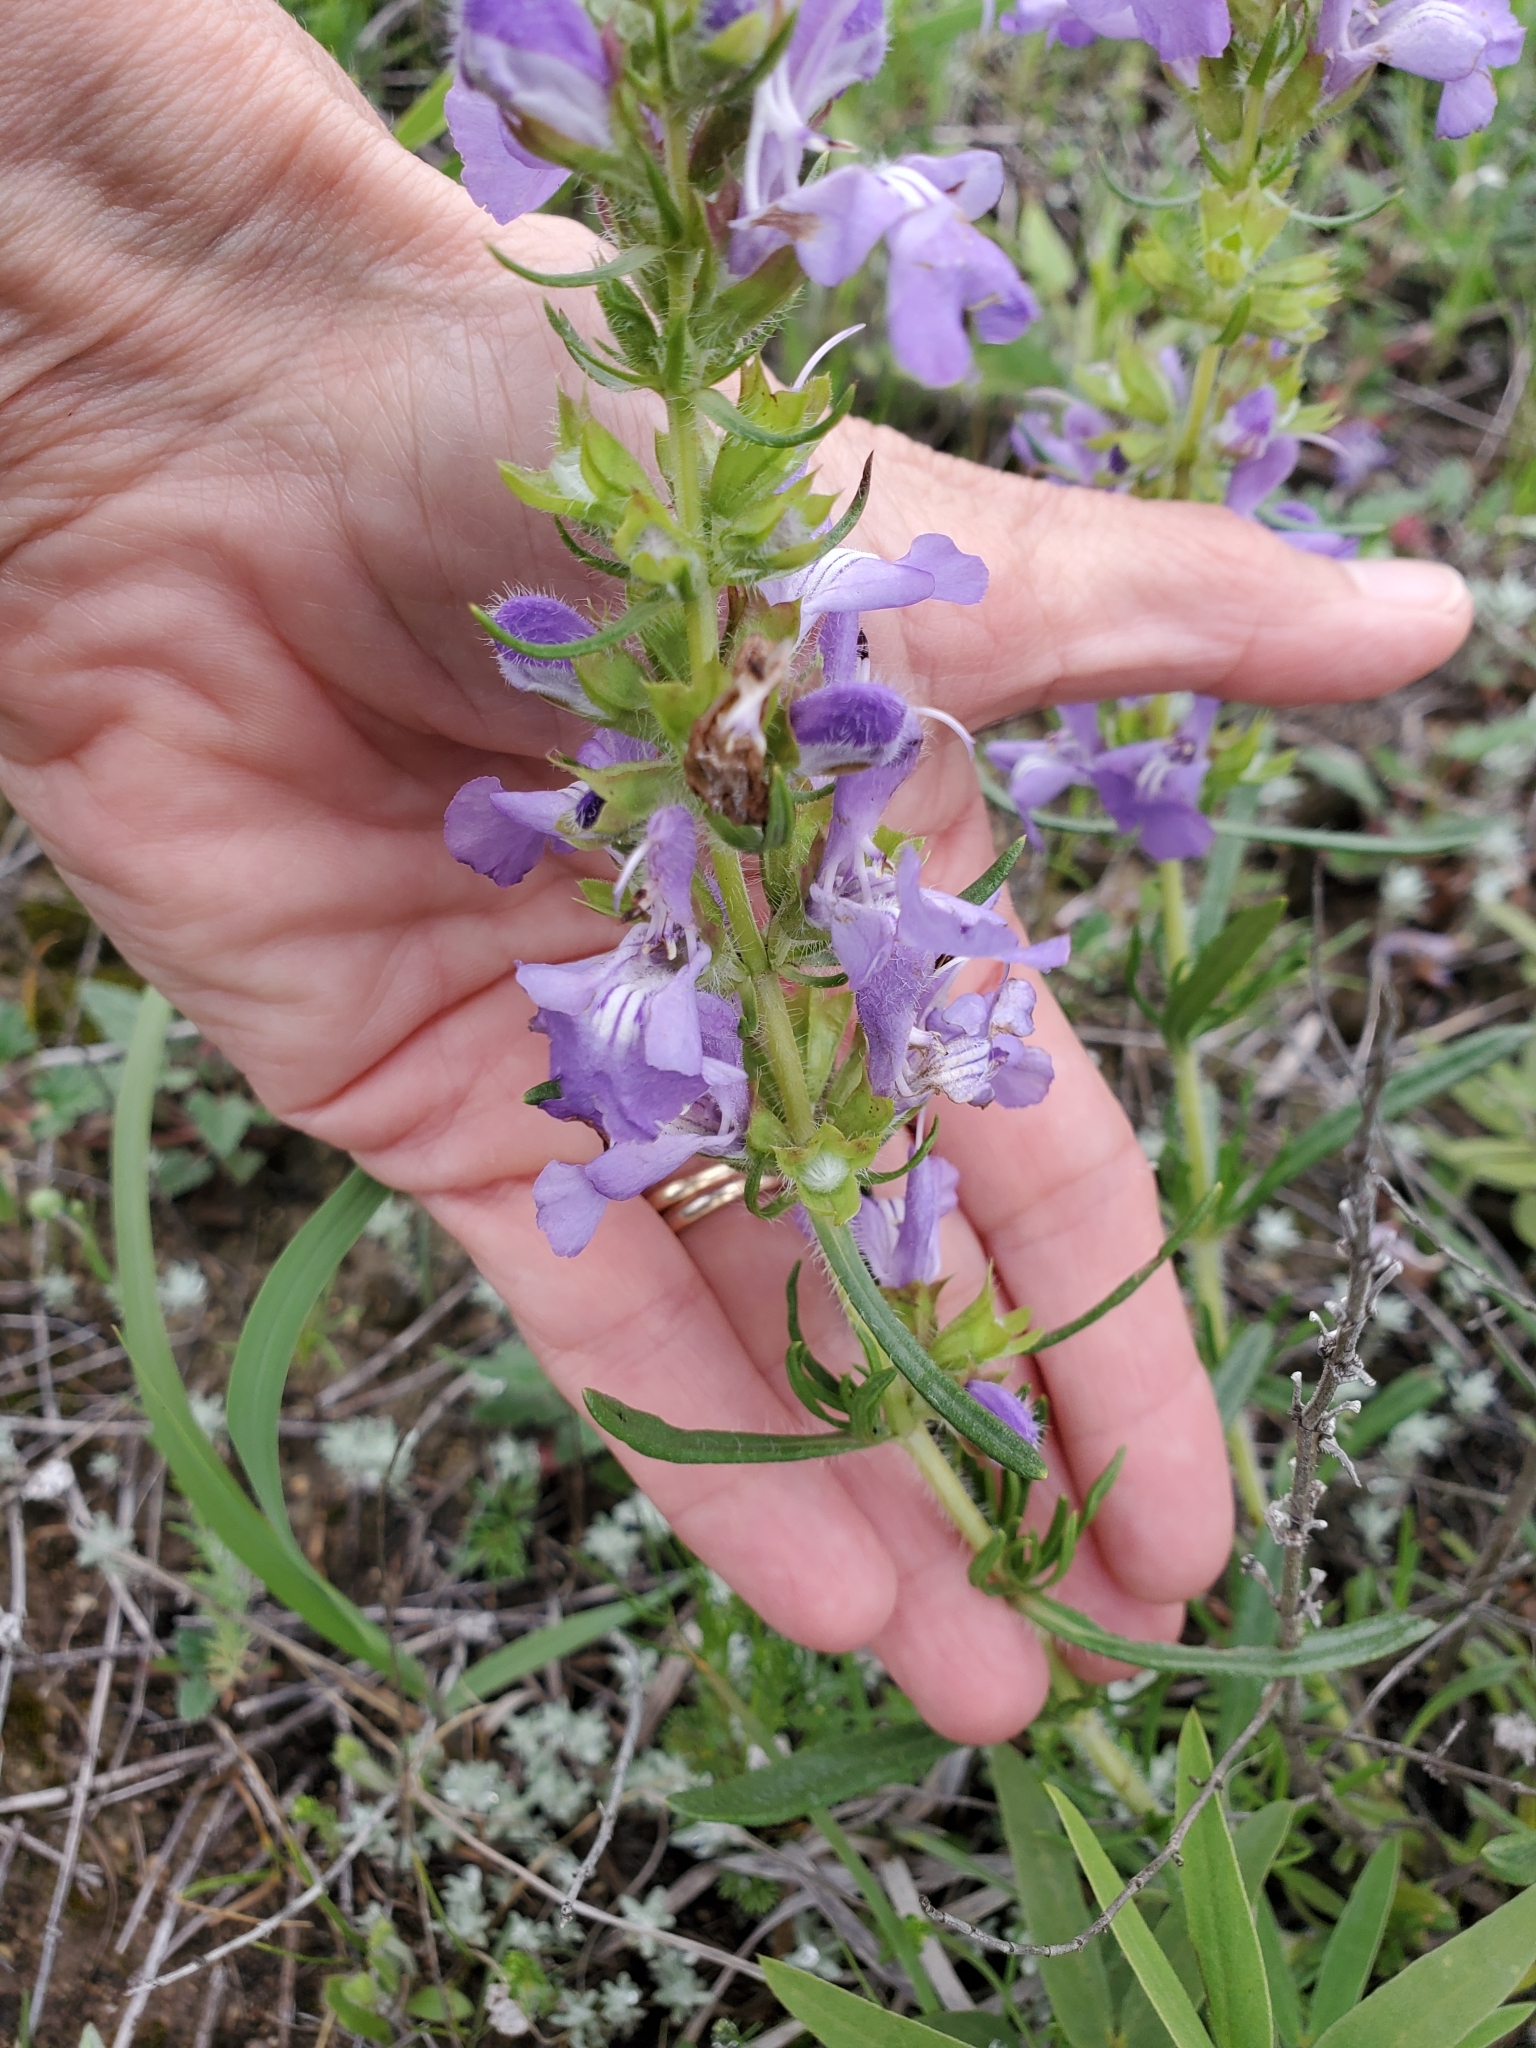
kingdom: Plantae
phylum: Tracheophyta
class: Magnoliopsida
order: Lamiales
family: Lamiaceae
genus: Salvia
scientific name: Salvia engelmannii
